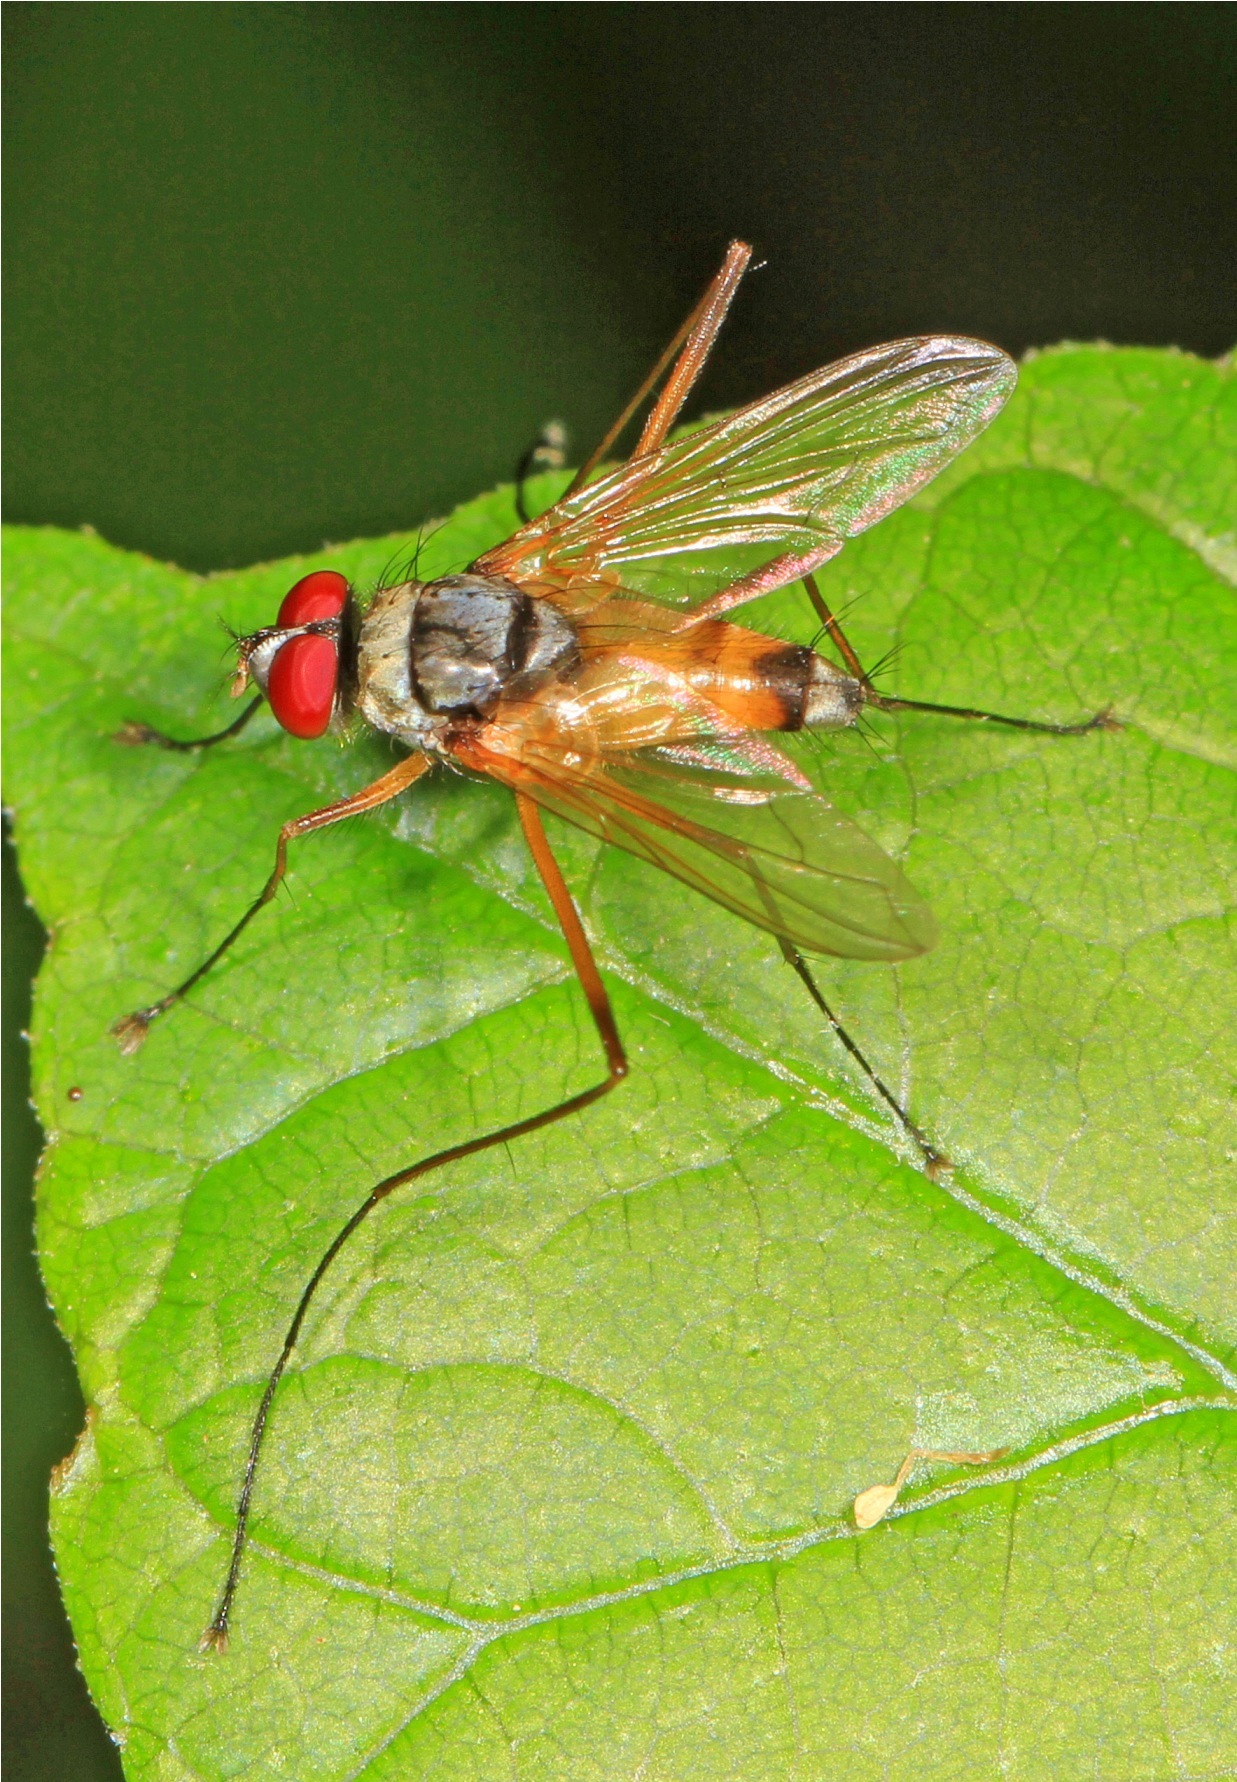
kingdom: Animalia
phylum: Arthropoda
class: Insecta
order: Diptera
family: Tachinidae
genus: Cholomyia
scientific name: Cholomyia inaequipes
